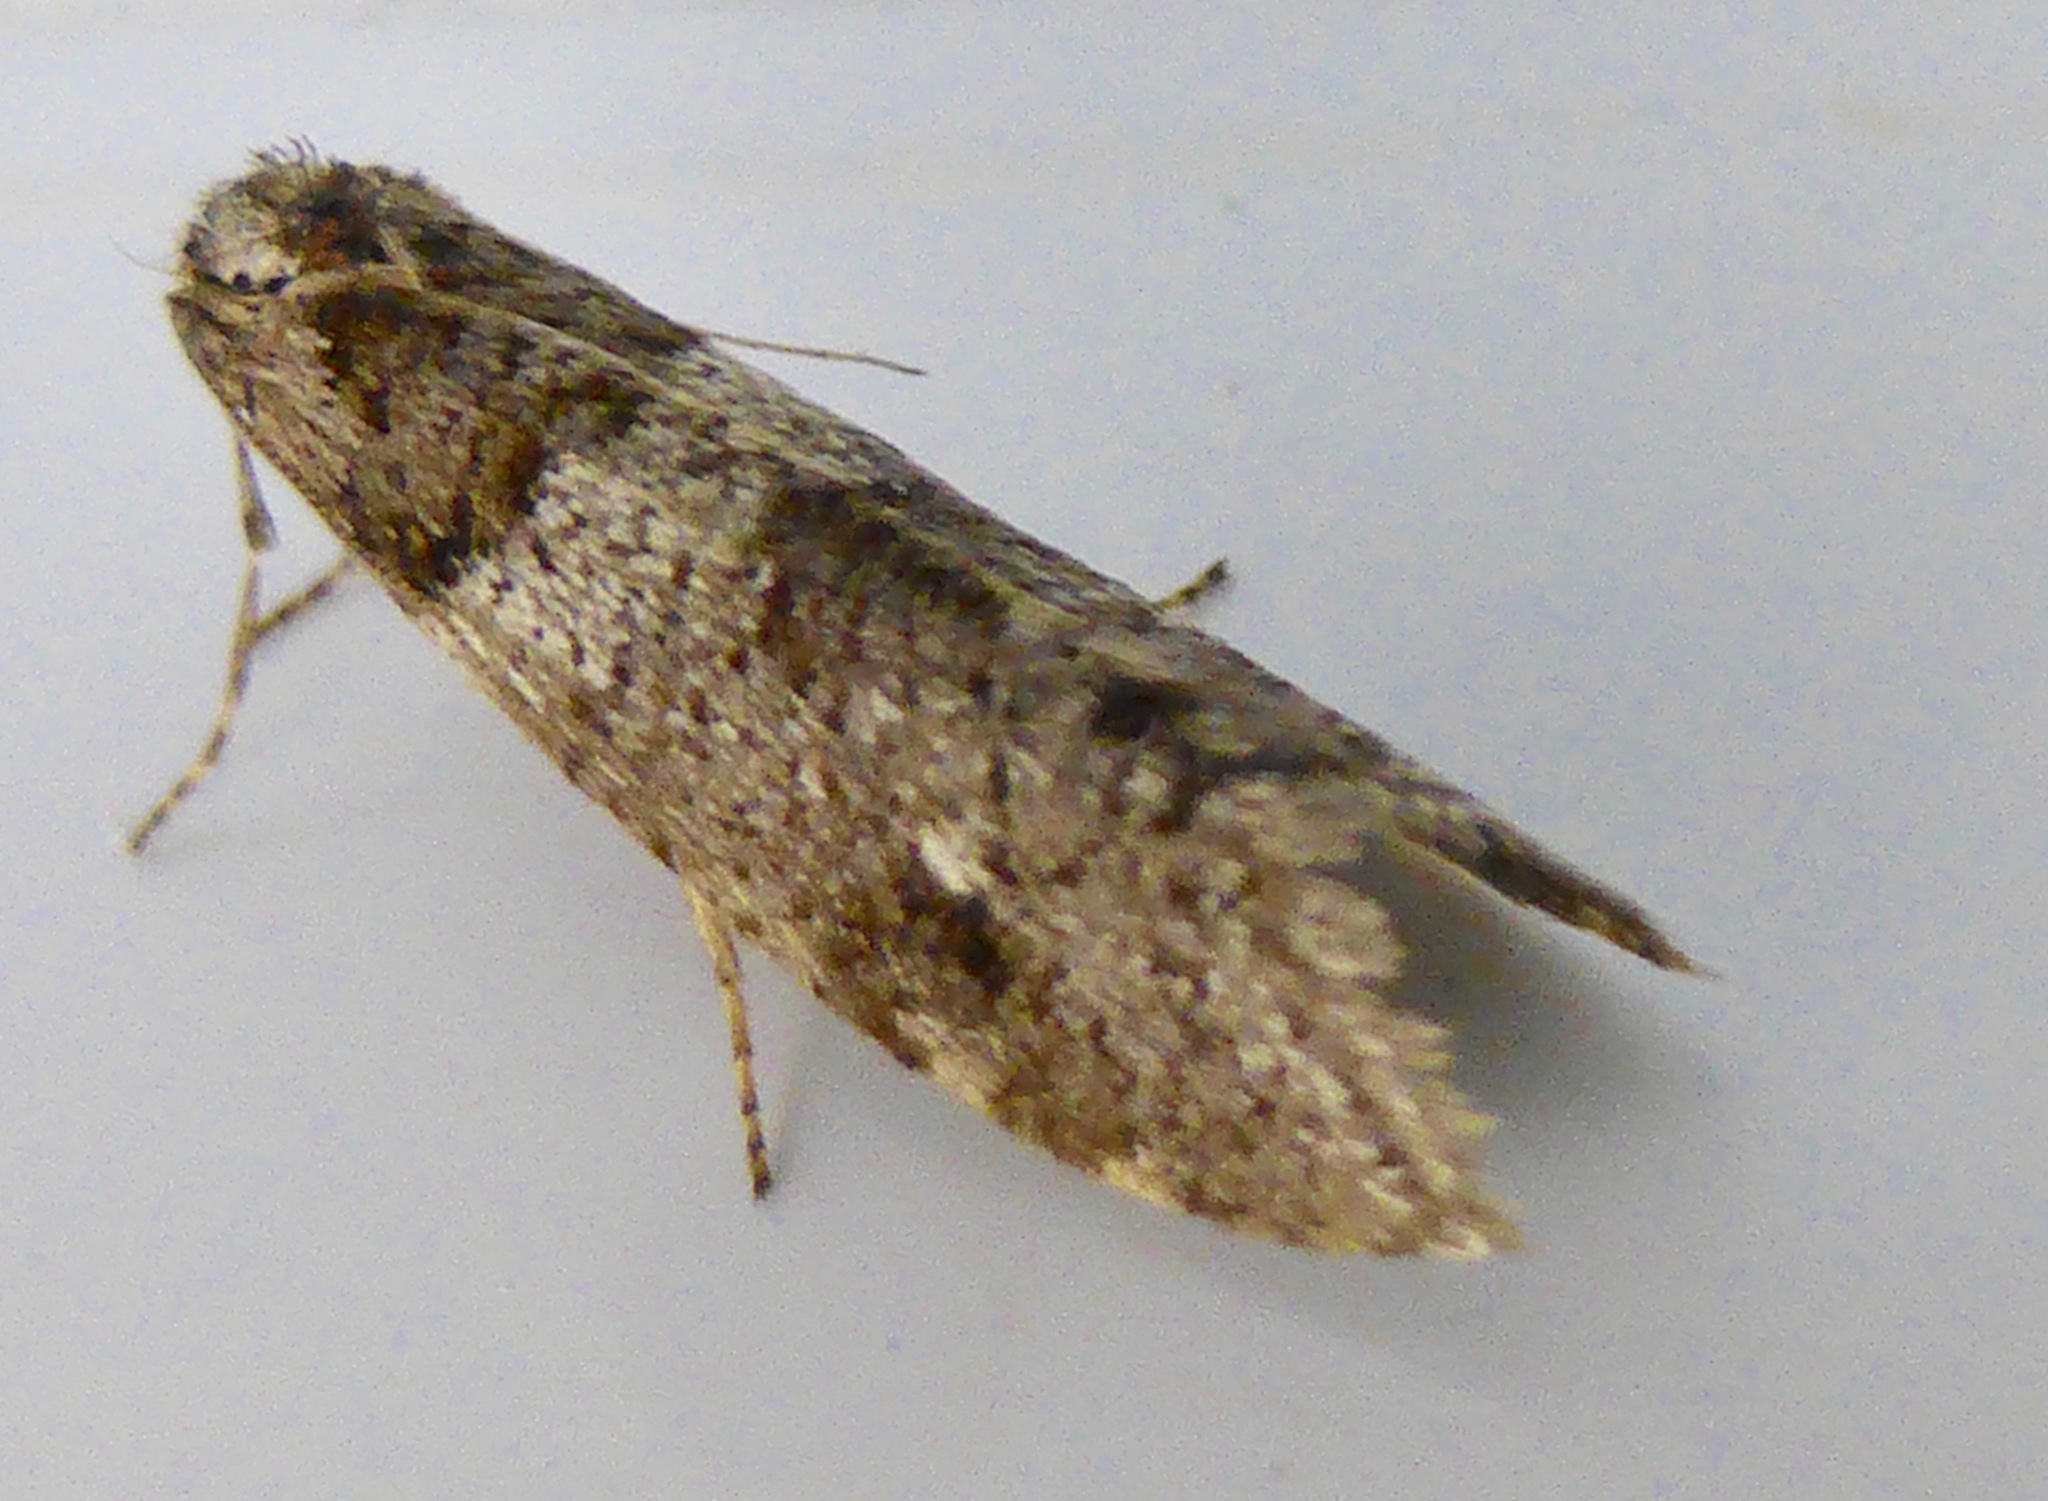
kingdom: Animalia
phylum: Arthropoda
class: Insecta
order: Lepidoptera
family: Psychidae
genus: Lepidoscia
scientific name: Lepidoscia heliochares
